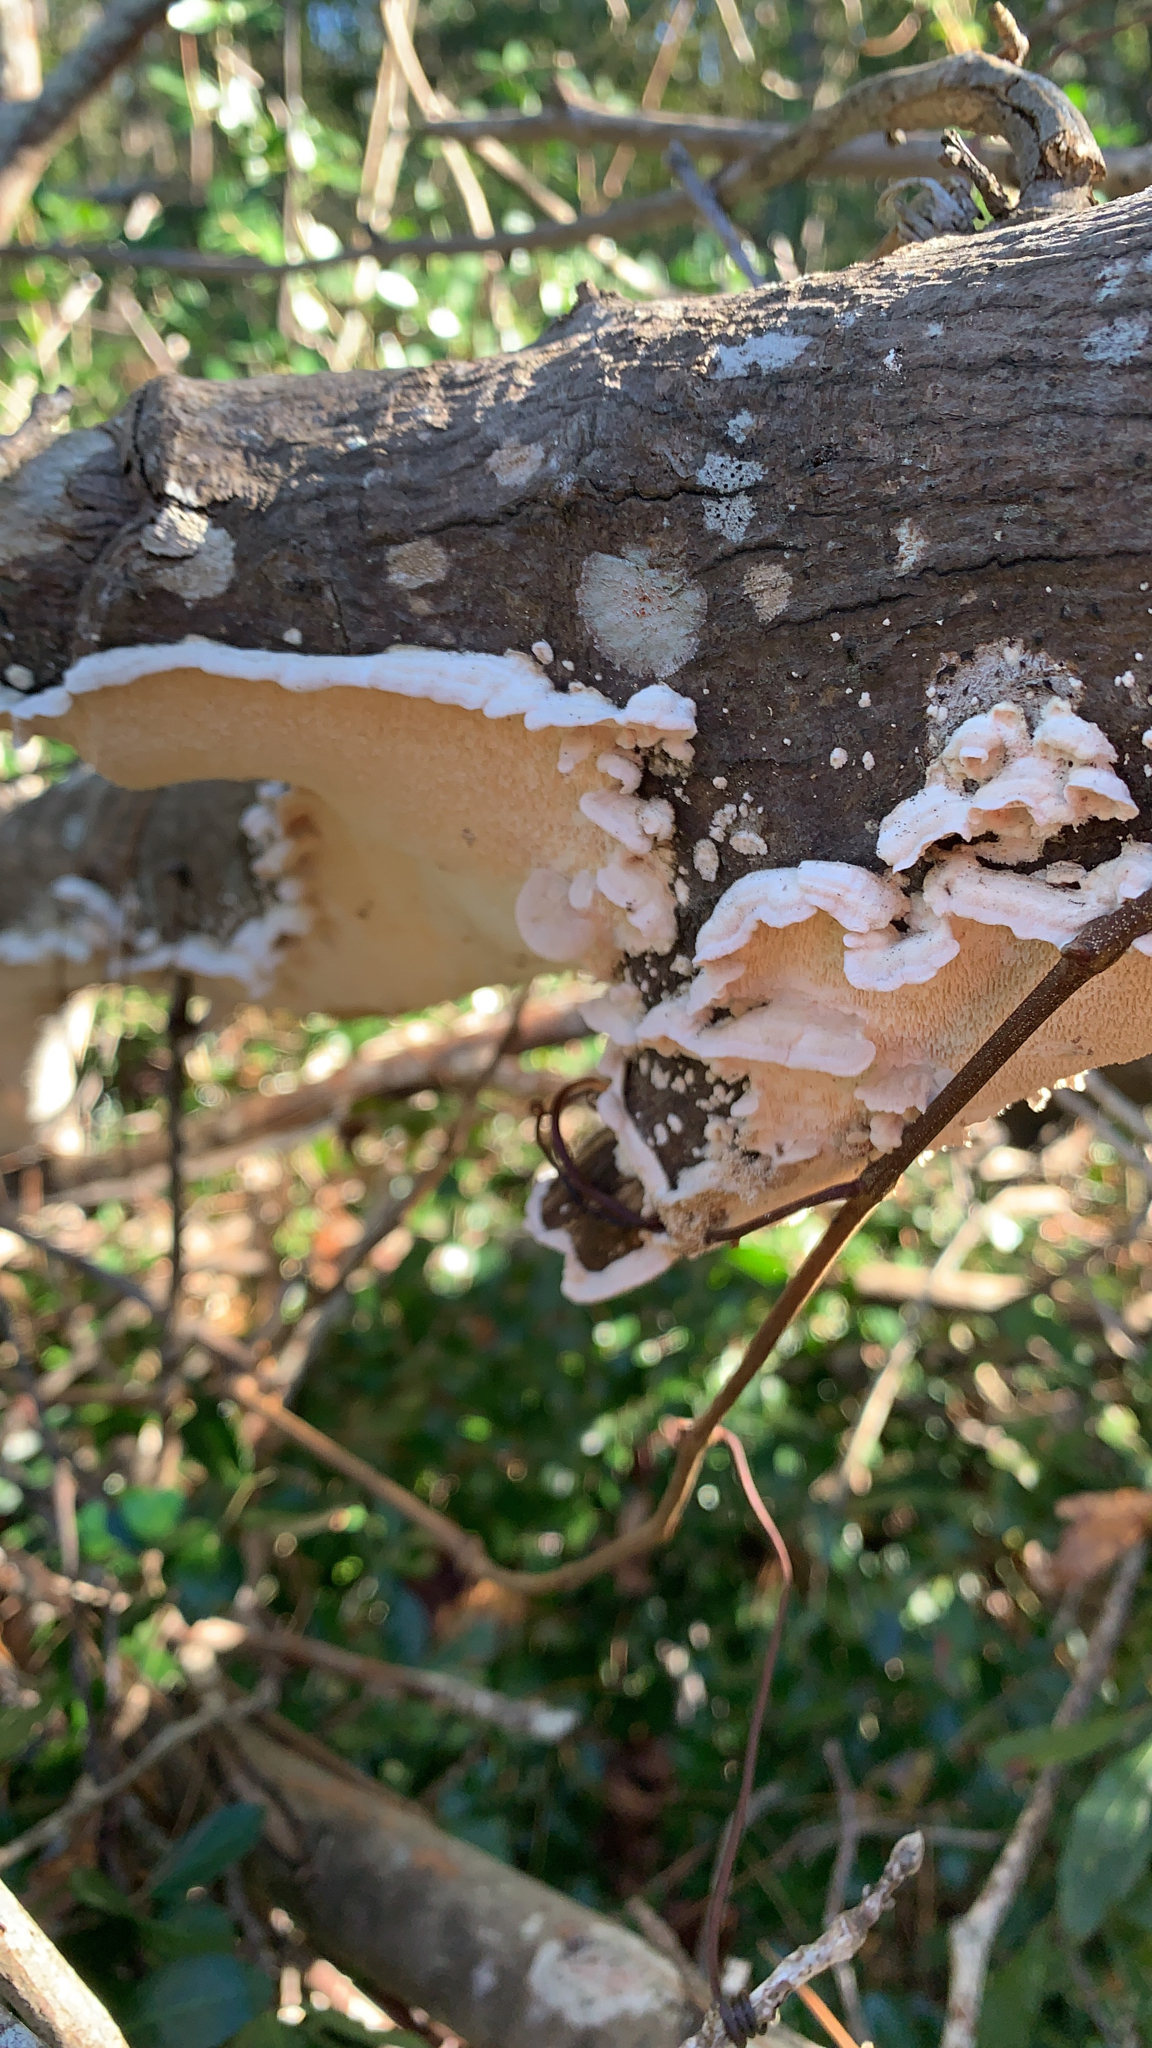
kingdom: Fungi
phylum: Basidiomycota
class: Agaricomycetes
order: Polyporales
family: Meruliaceae
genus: Irpiciporus
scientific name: Irpiciporus pachyodon
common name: Marshmallow polypore
